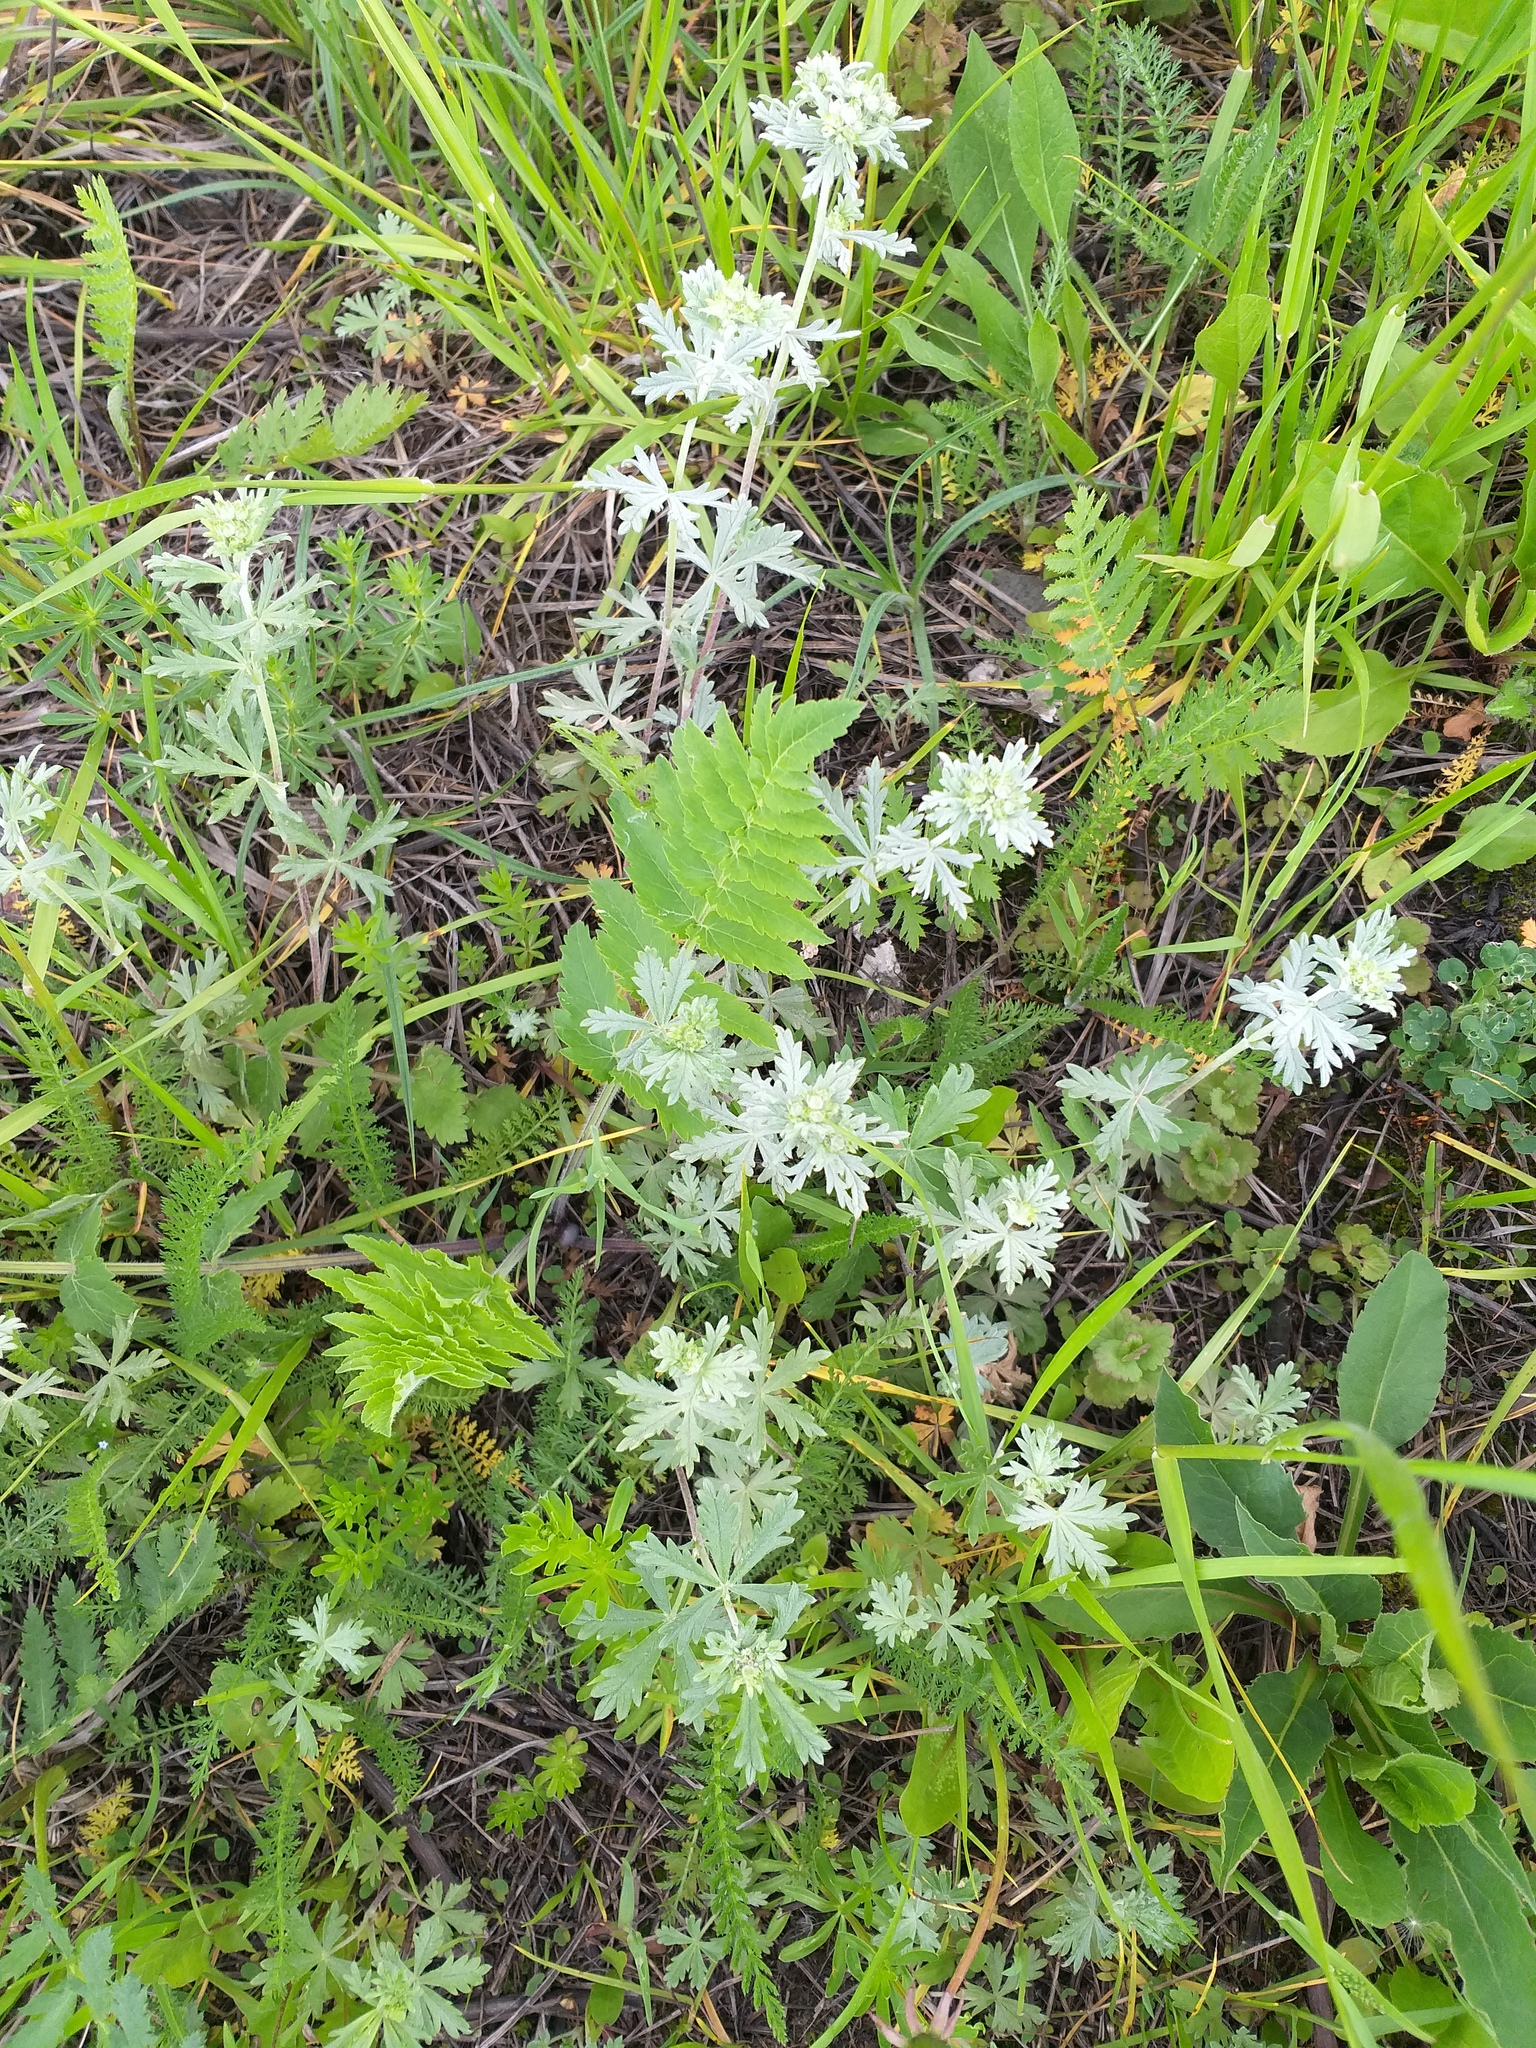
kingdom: Plantae
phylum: Tracheophyta
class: Magnoliopsida
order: Rosales
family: Rosaceae
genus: Potentilla
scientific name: Potentilla argentea
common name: Hoary cinquefoil
